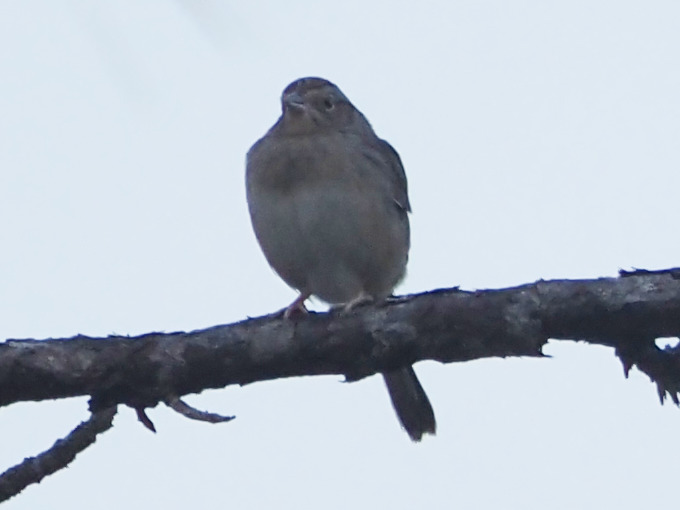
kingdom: Animalia
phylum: Chordata
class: Aves
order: Passeriformes
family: Passerellidae
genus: Peucaea
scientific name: Peucaea aestivalis
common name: Bachman's sparrow
